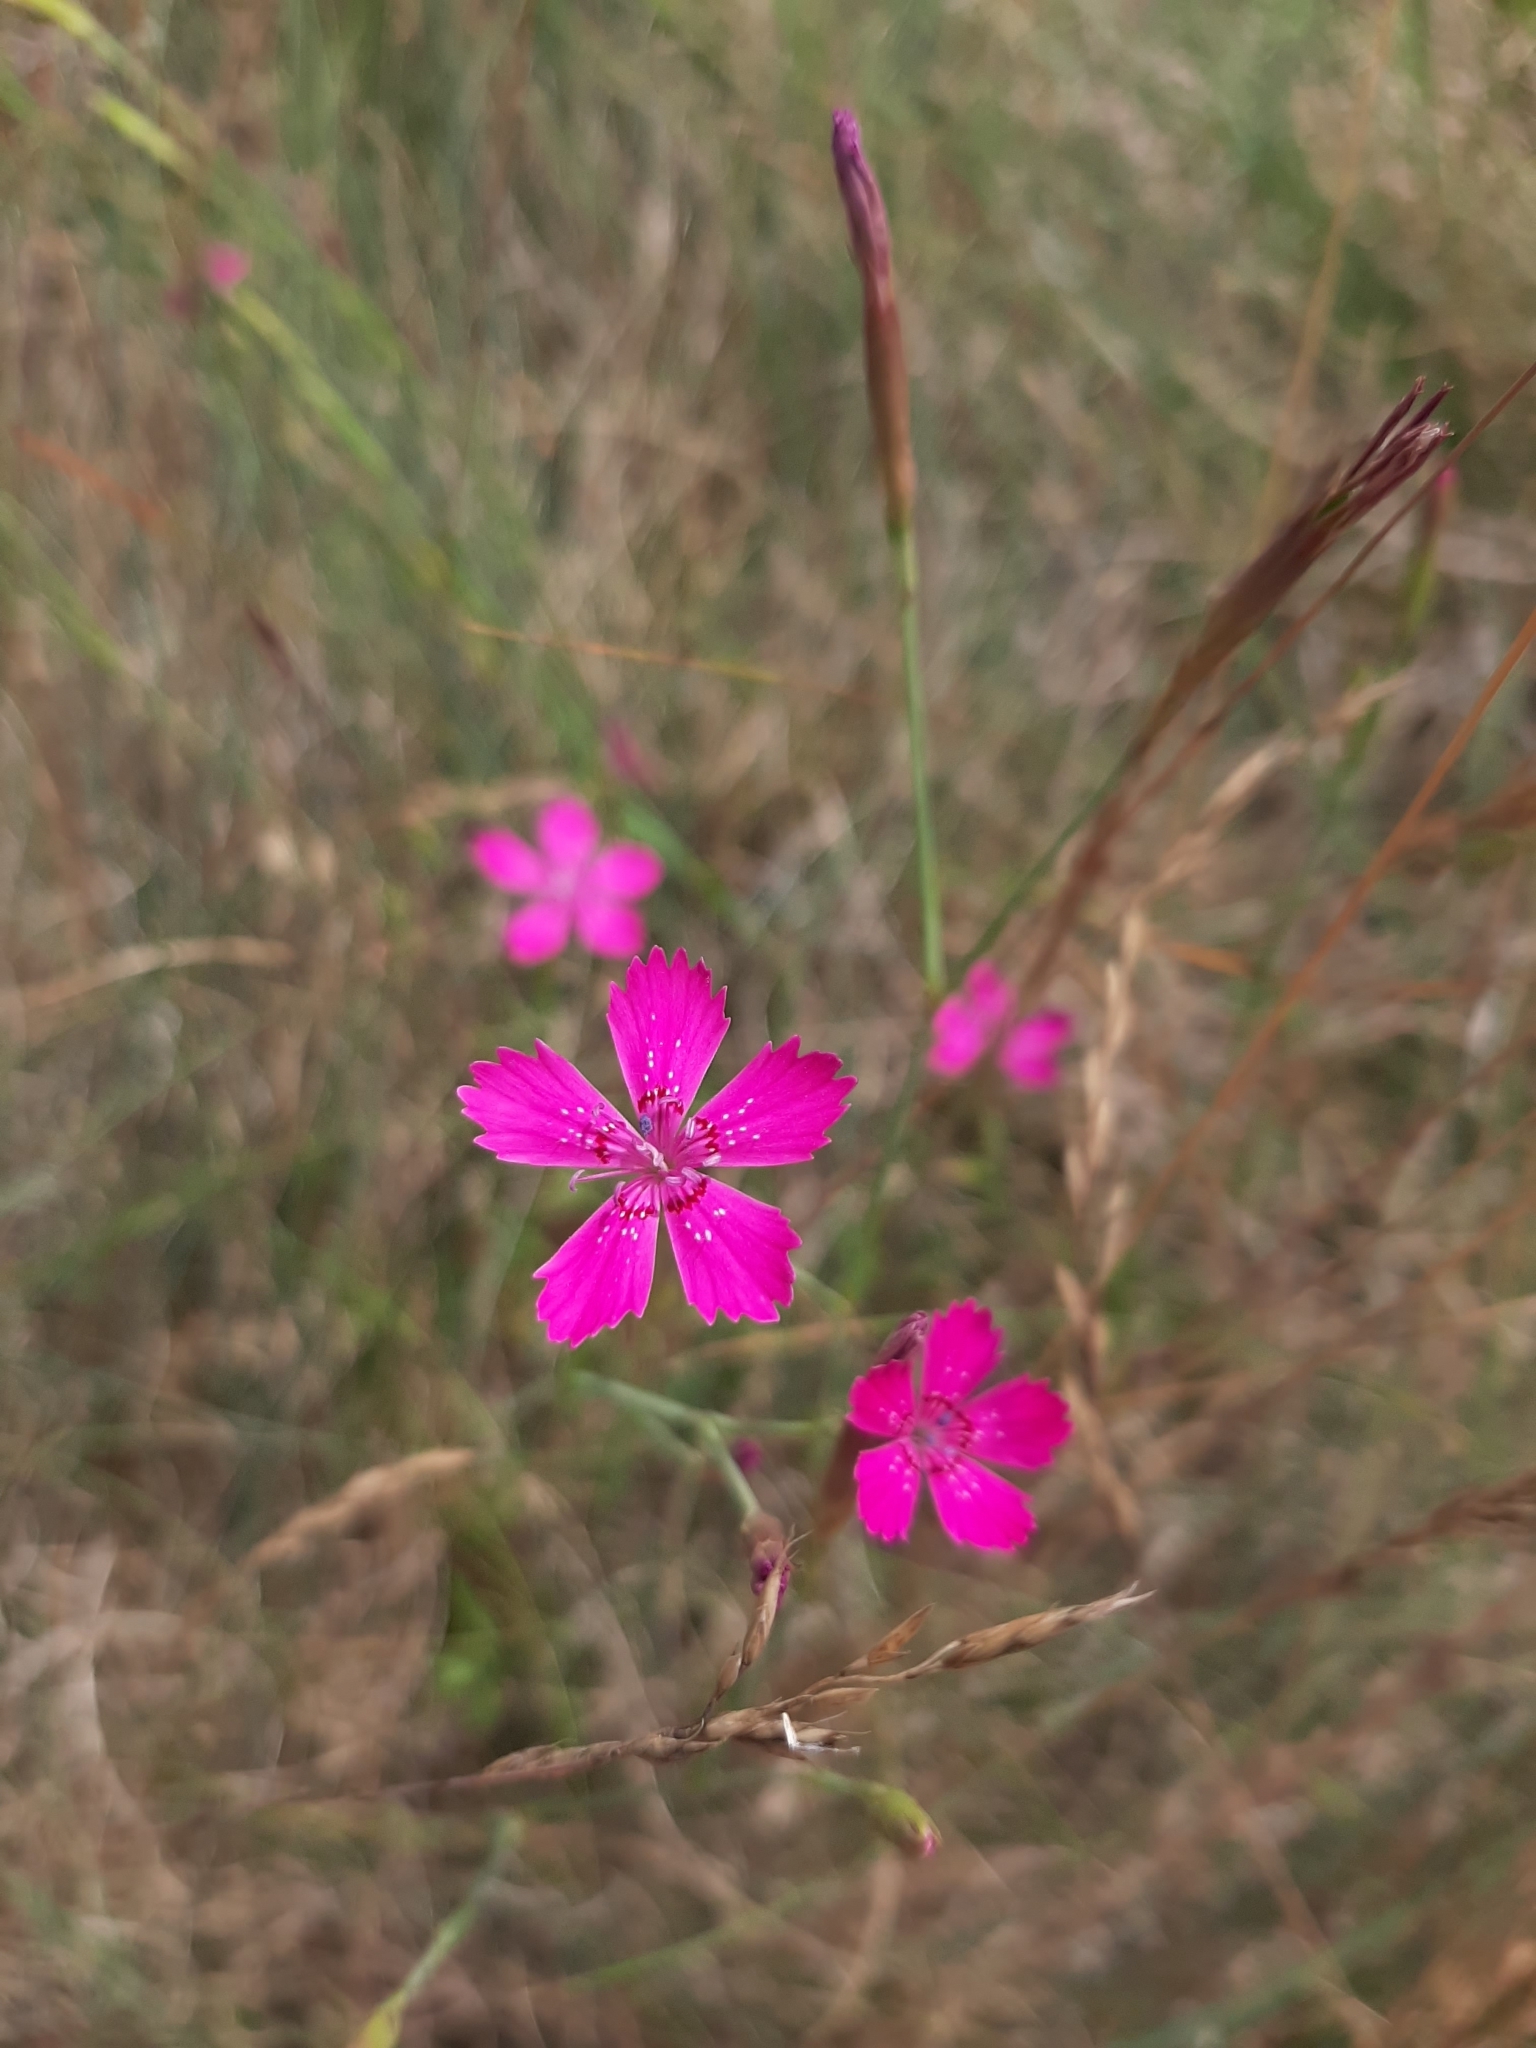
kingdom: Plantae
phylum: Tracheophyta
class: Magnoliopsida
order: Caryophyllales
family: Caryophyllaceae
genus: Dianthus
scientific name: Dianthus deltoides
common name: Maiden pink
